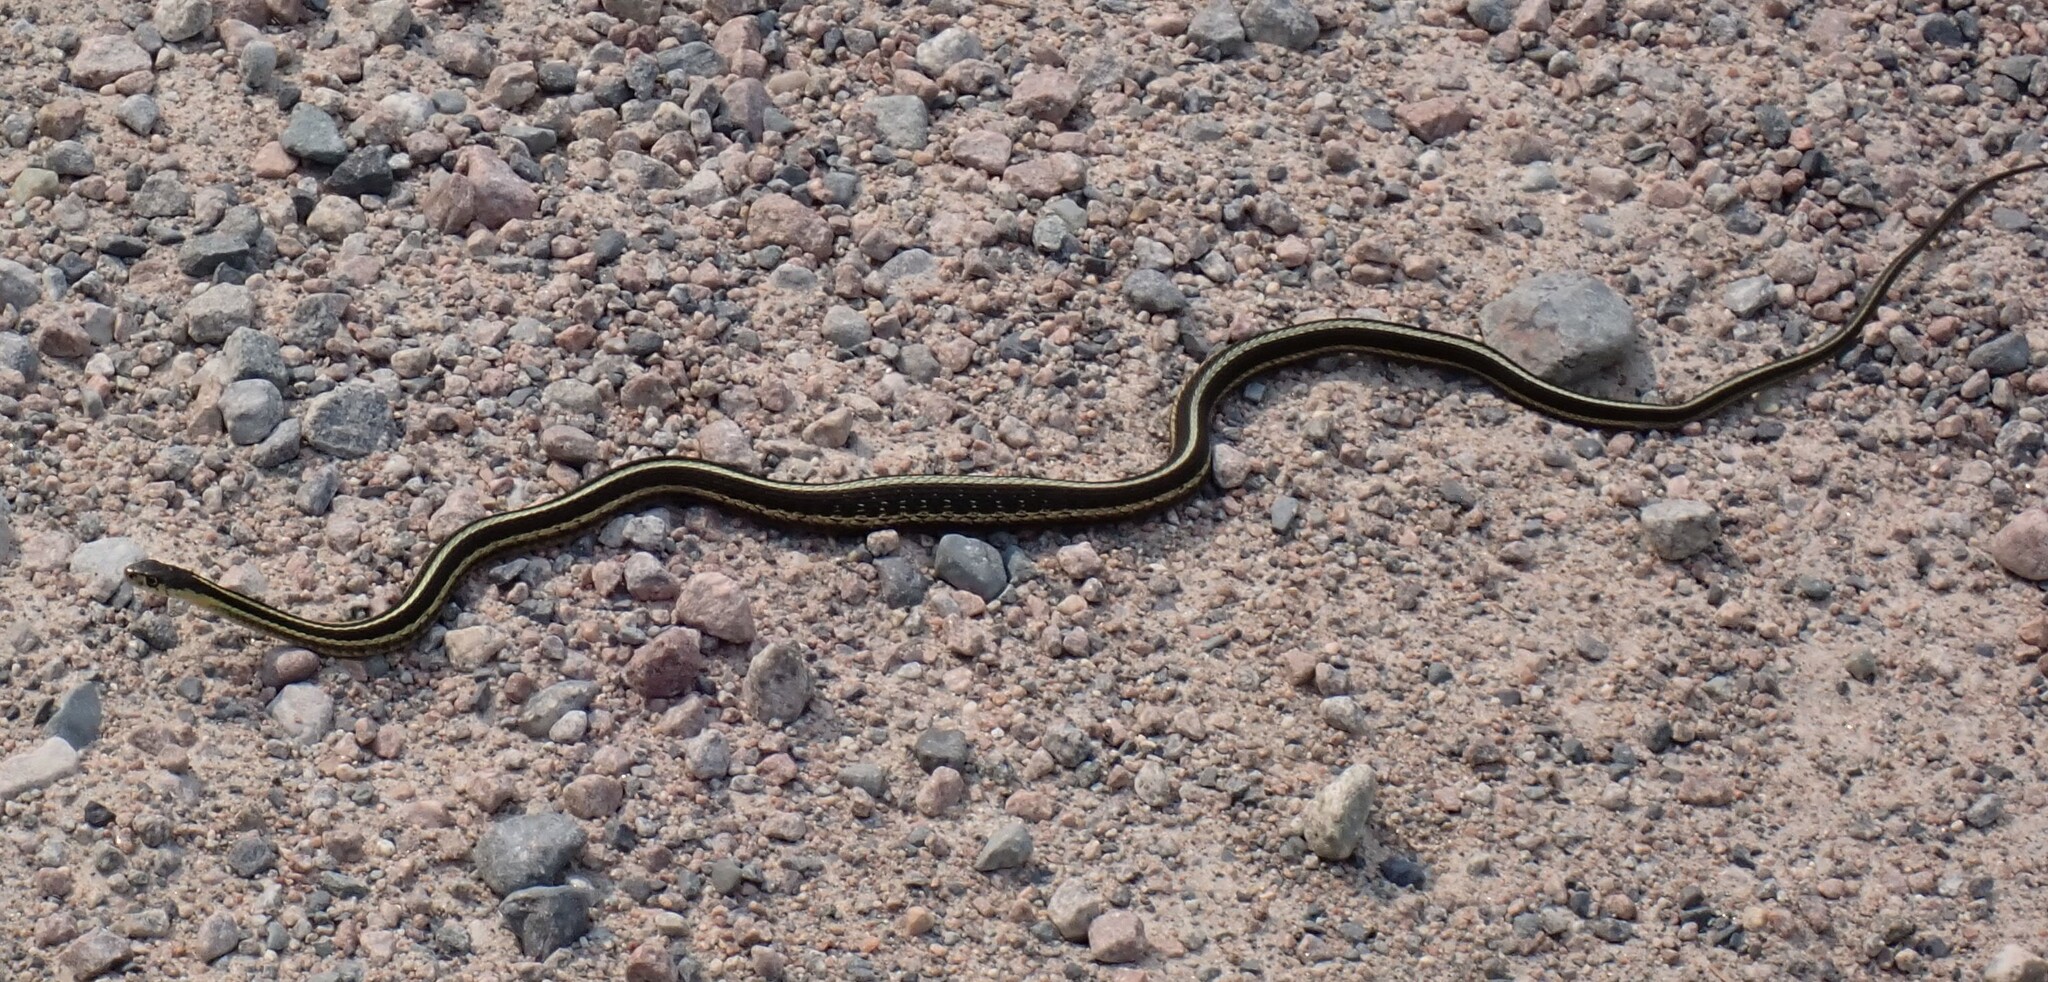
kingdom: Animalia
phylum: Chordata
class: Squamata
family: Colubridae
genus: Thamnophis
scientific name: Thamnophis sirtalis
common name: Common garter snake
